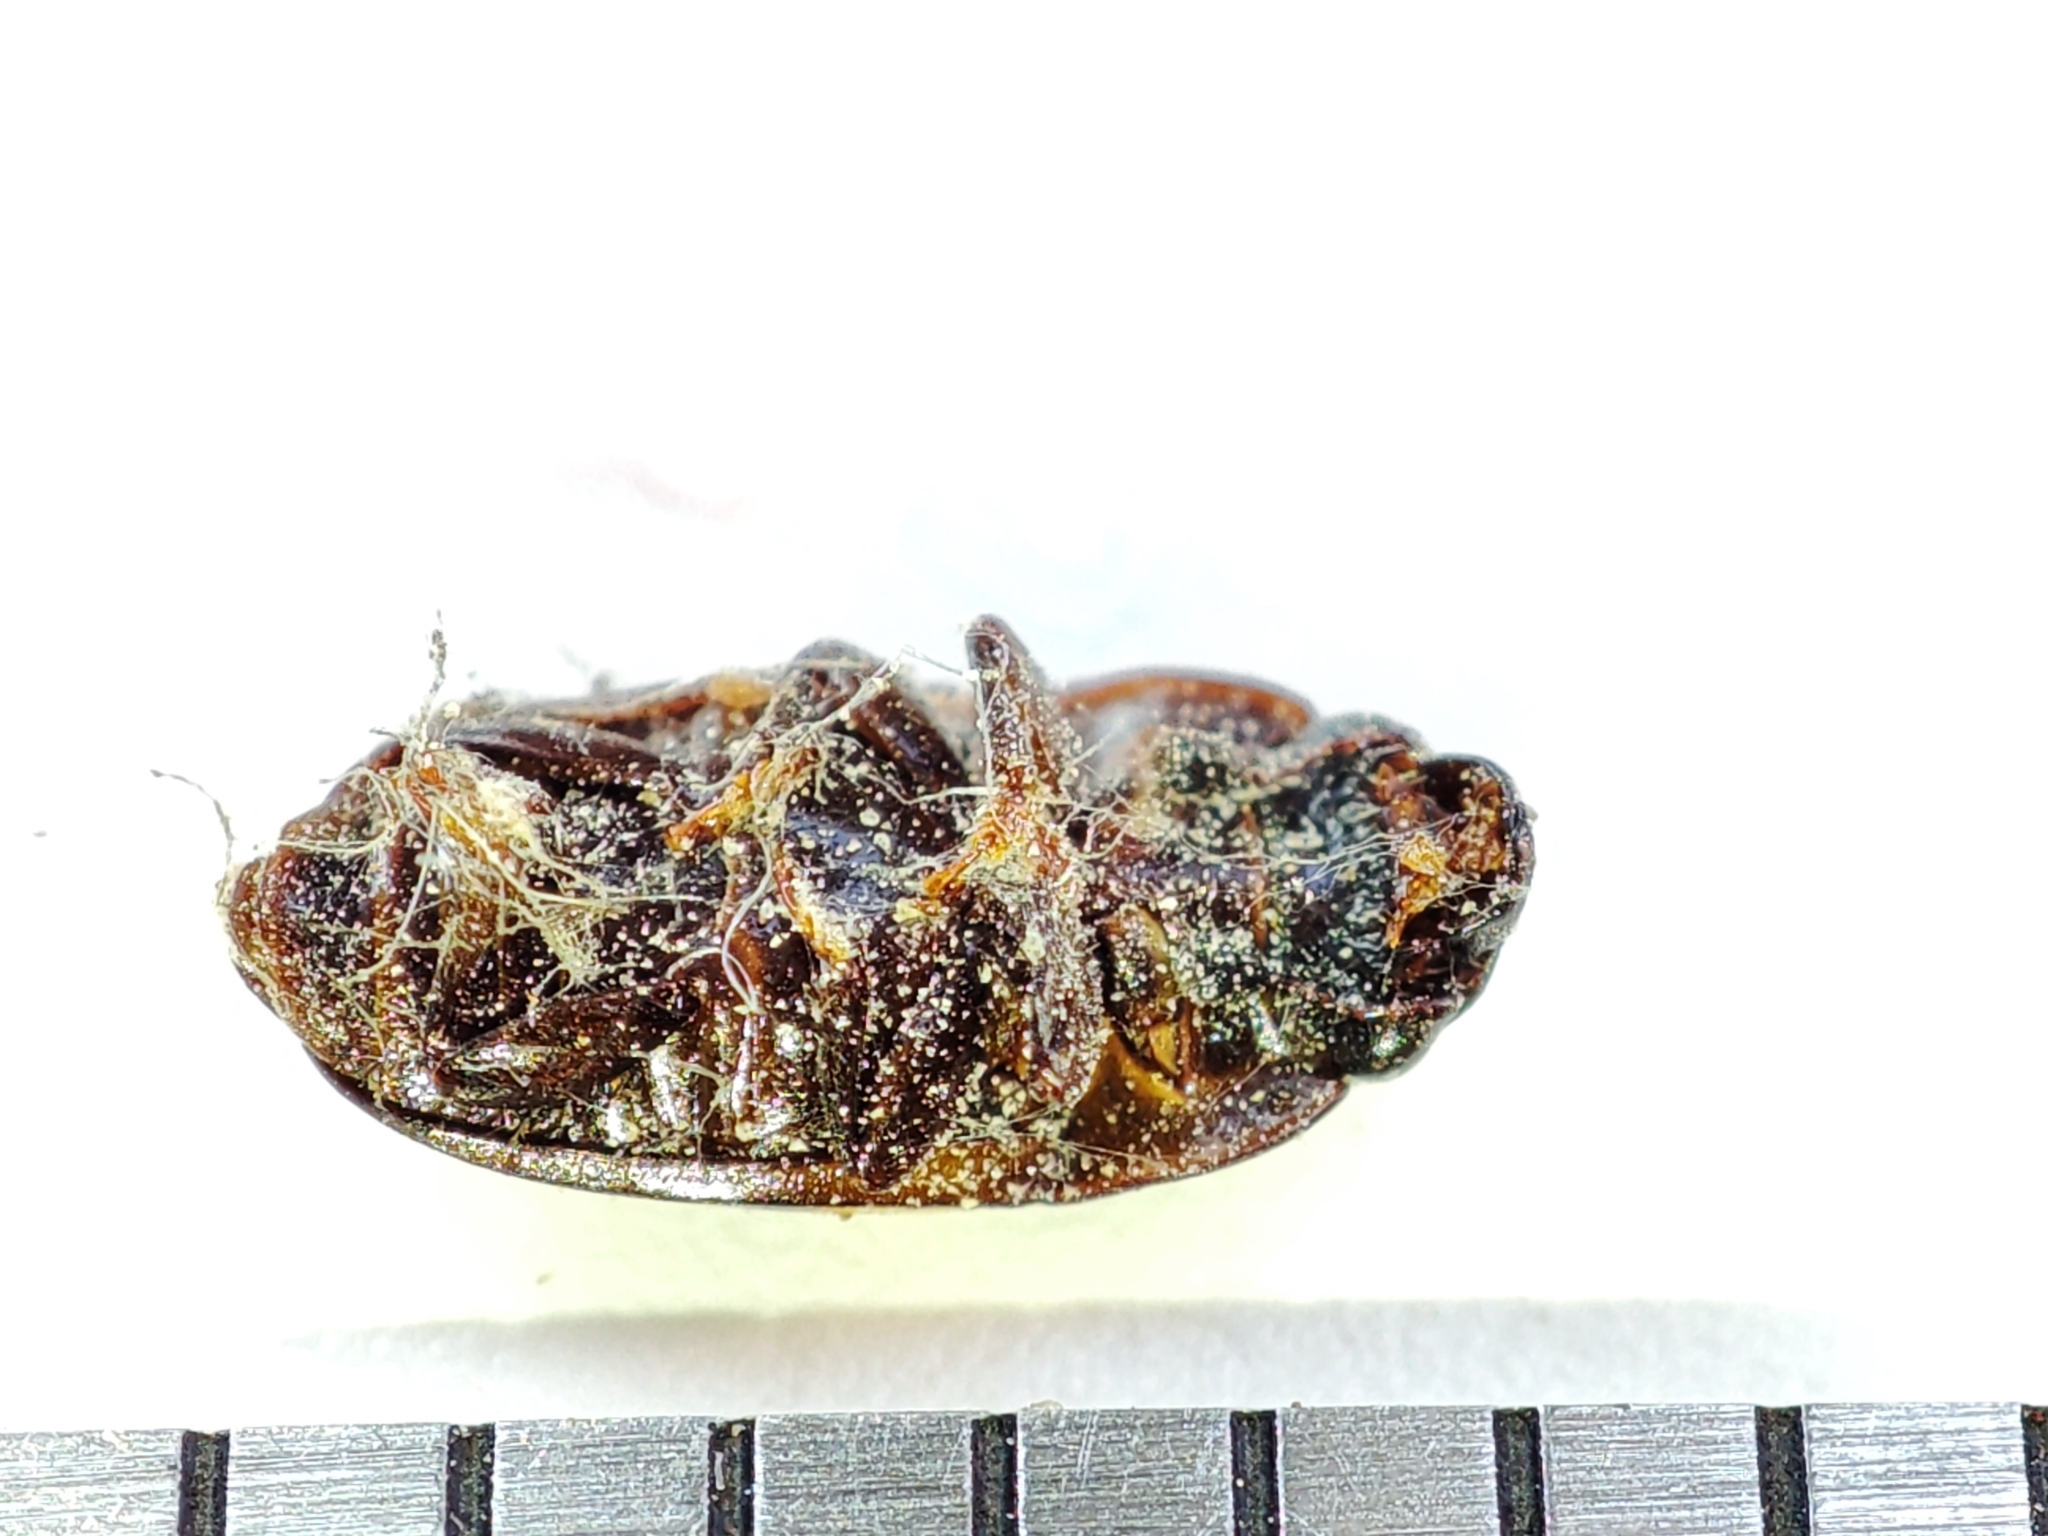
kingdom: Animalia
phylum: Arthropoda
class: Insecta
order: Coleoptera
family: Nitidulidae
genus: Glischrochilus
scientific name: Glischrochilus grandis
